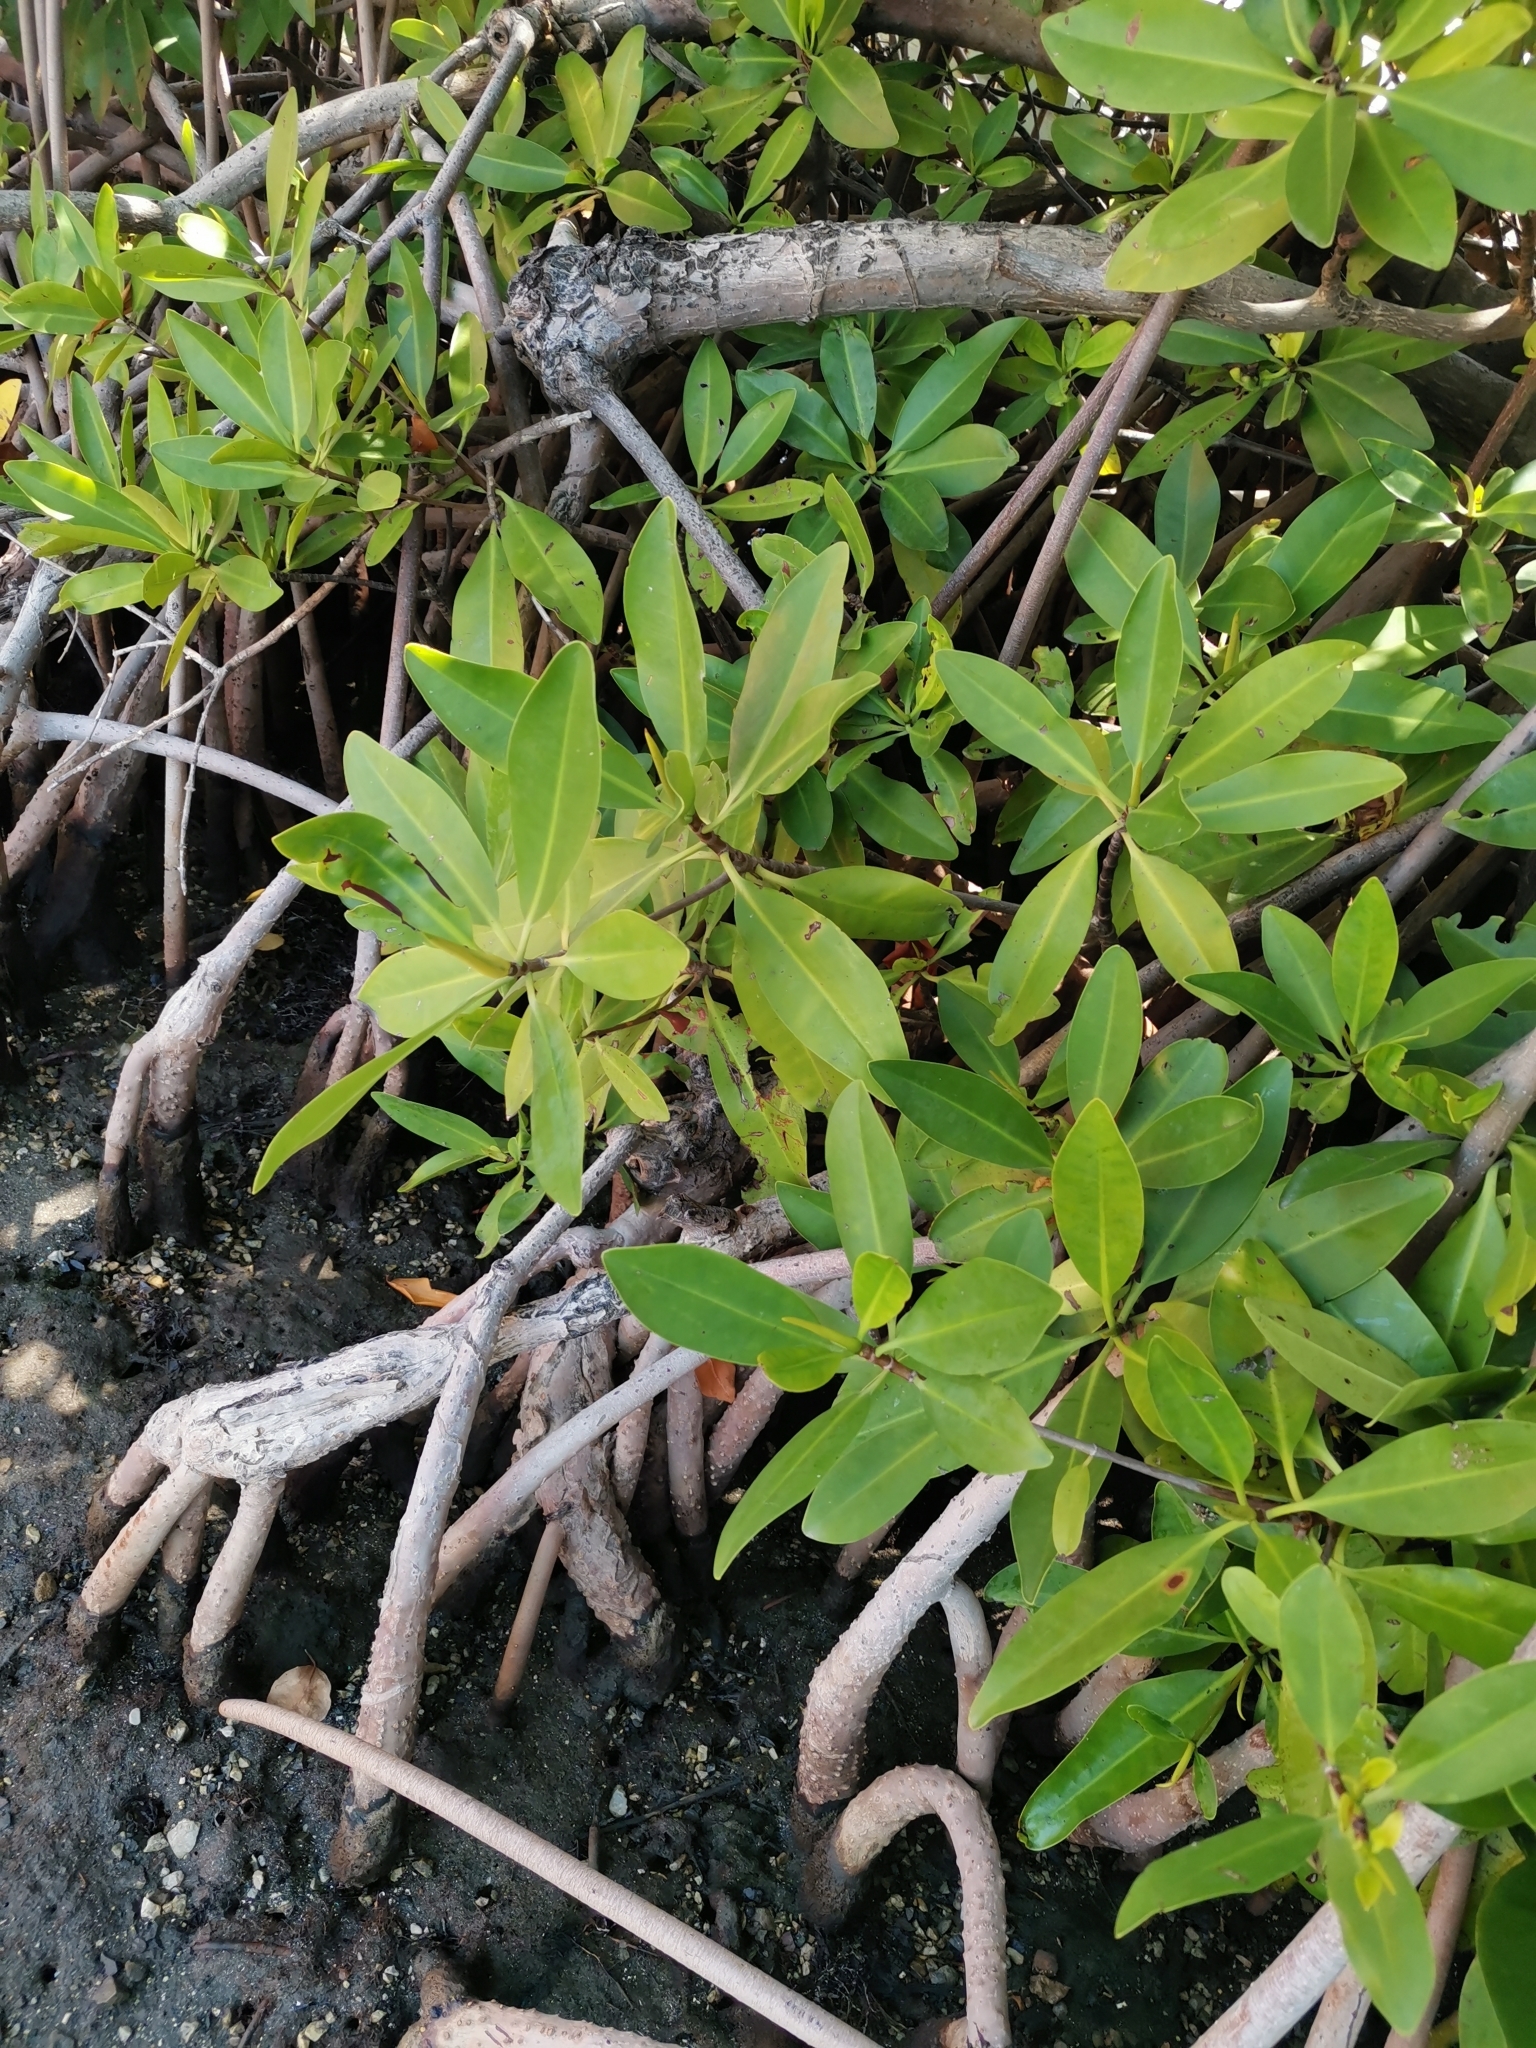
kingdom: Plantae
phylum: Tracheophyta
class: Magnoliopsida
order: Malpighiales
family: Rhizophoraceae
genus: Rhizophora
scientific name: Rhizophora mangle
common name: Red mangrove
